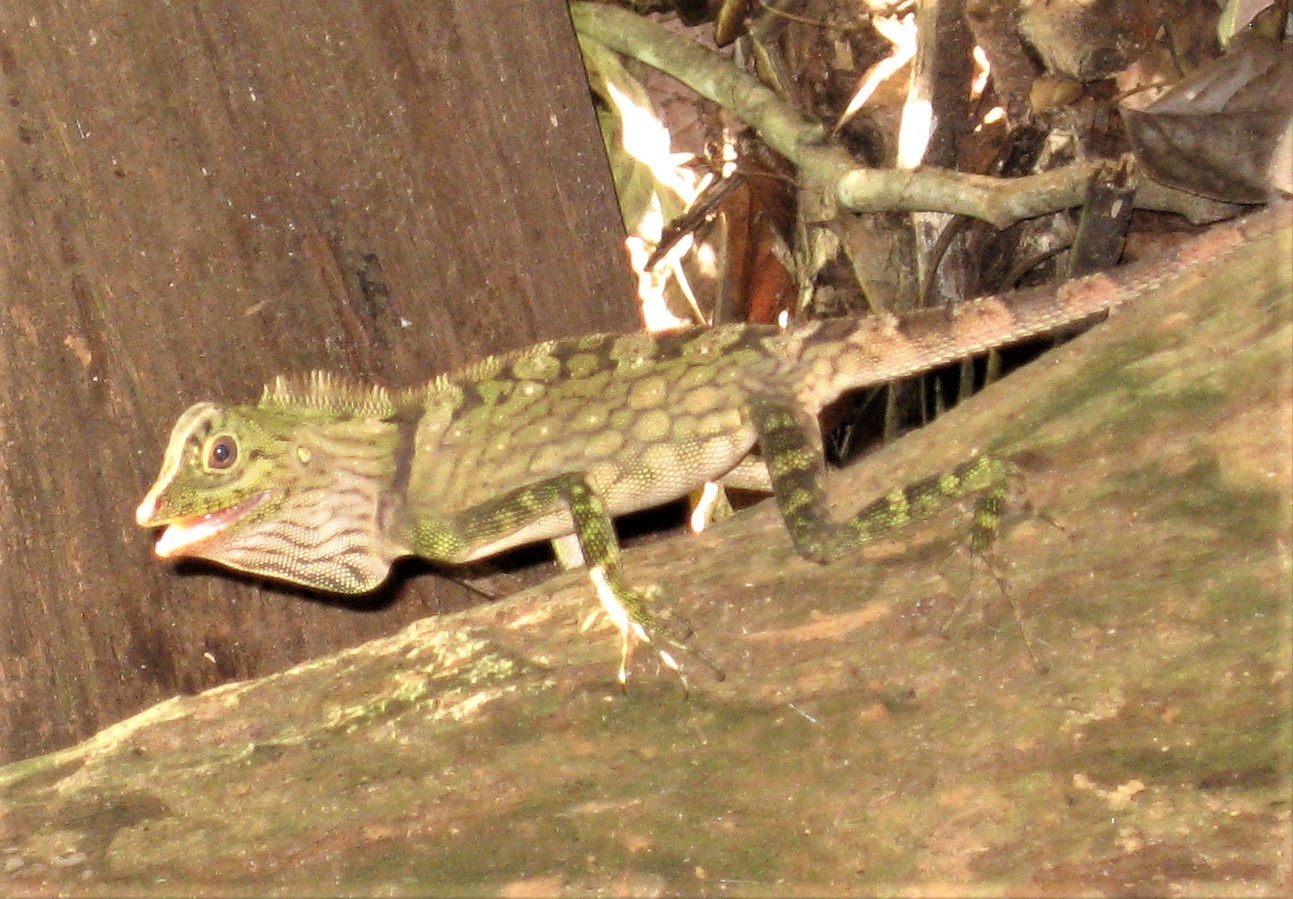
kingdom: Animalia
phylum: Chordata
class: Squamata
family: Agamidae
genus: Gonocephalus
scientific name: Gonocephalus bornensis
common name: Borneo forest dragon
